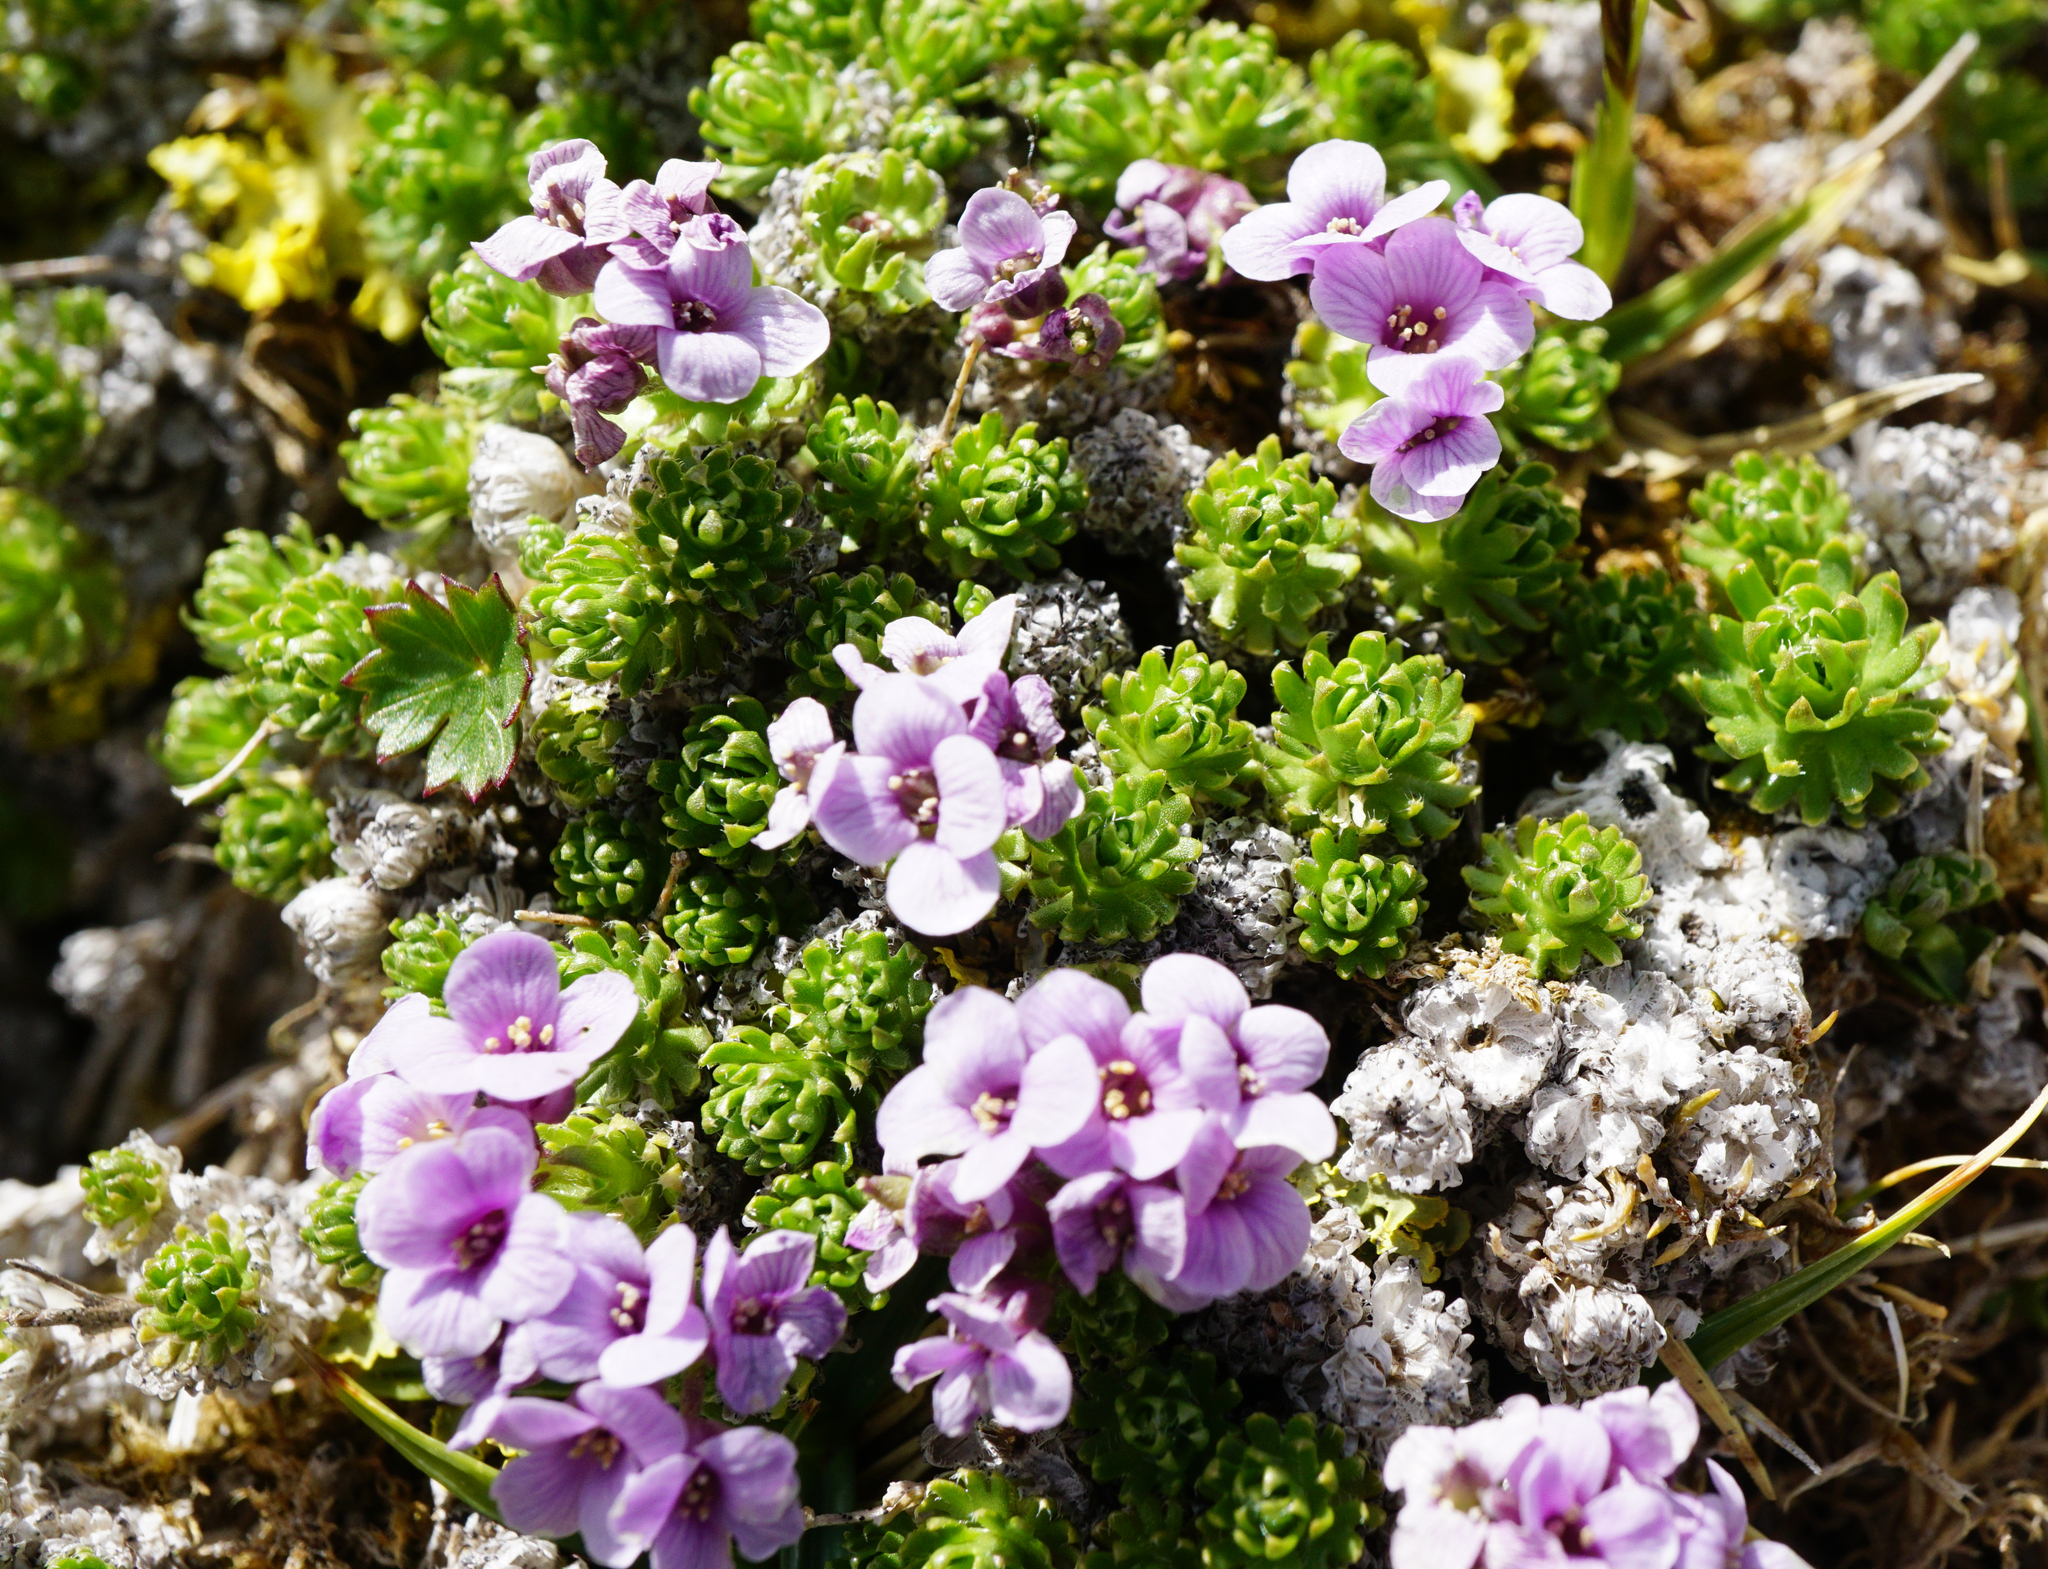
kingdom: Plantae
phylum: Tracheophyta
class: Magnoliopsida
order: Brassicales
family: Brassicaceae
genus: Petrocallis
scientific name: Petrocallis pyrenaica
